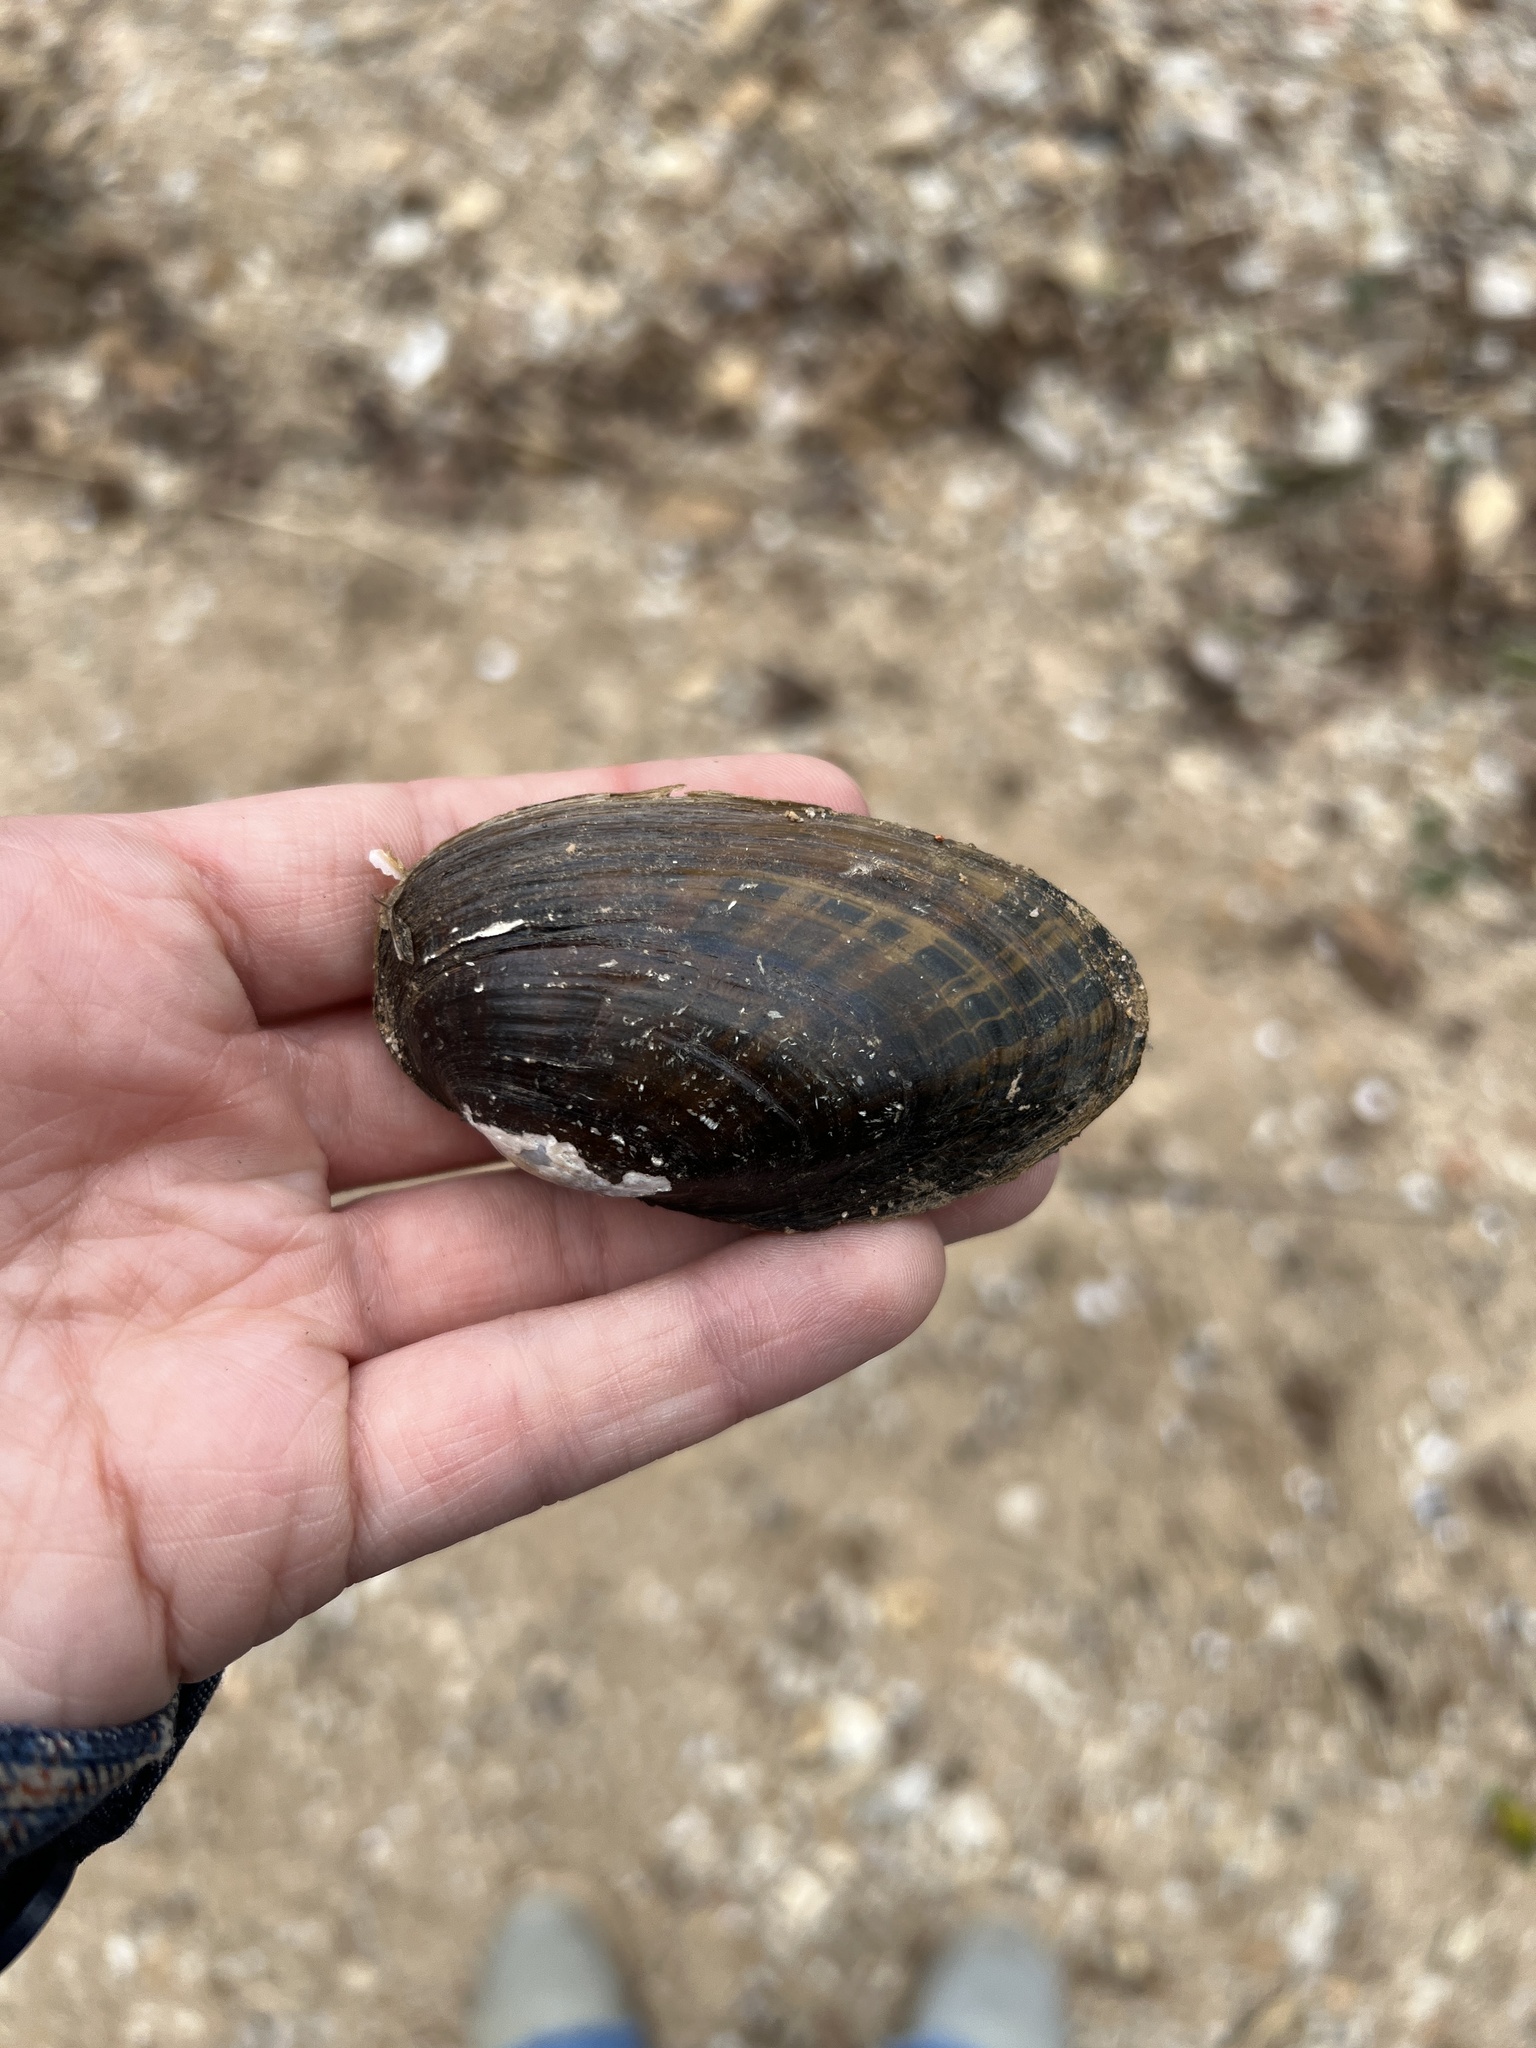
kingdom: Animalia
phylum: Mollusca
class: Bivalvia
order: Unionida
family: Unionidae
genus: Villosa
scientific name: Villosa vibex
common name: Southern rainbow
